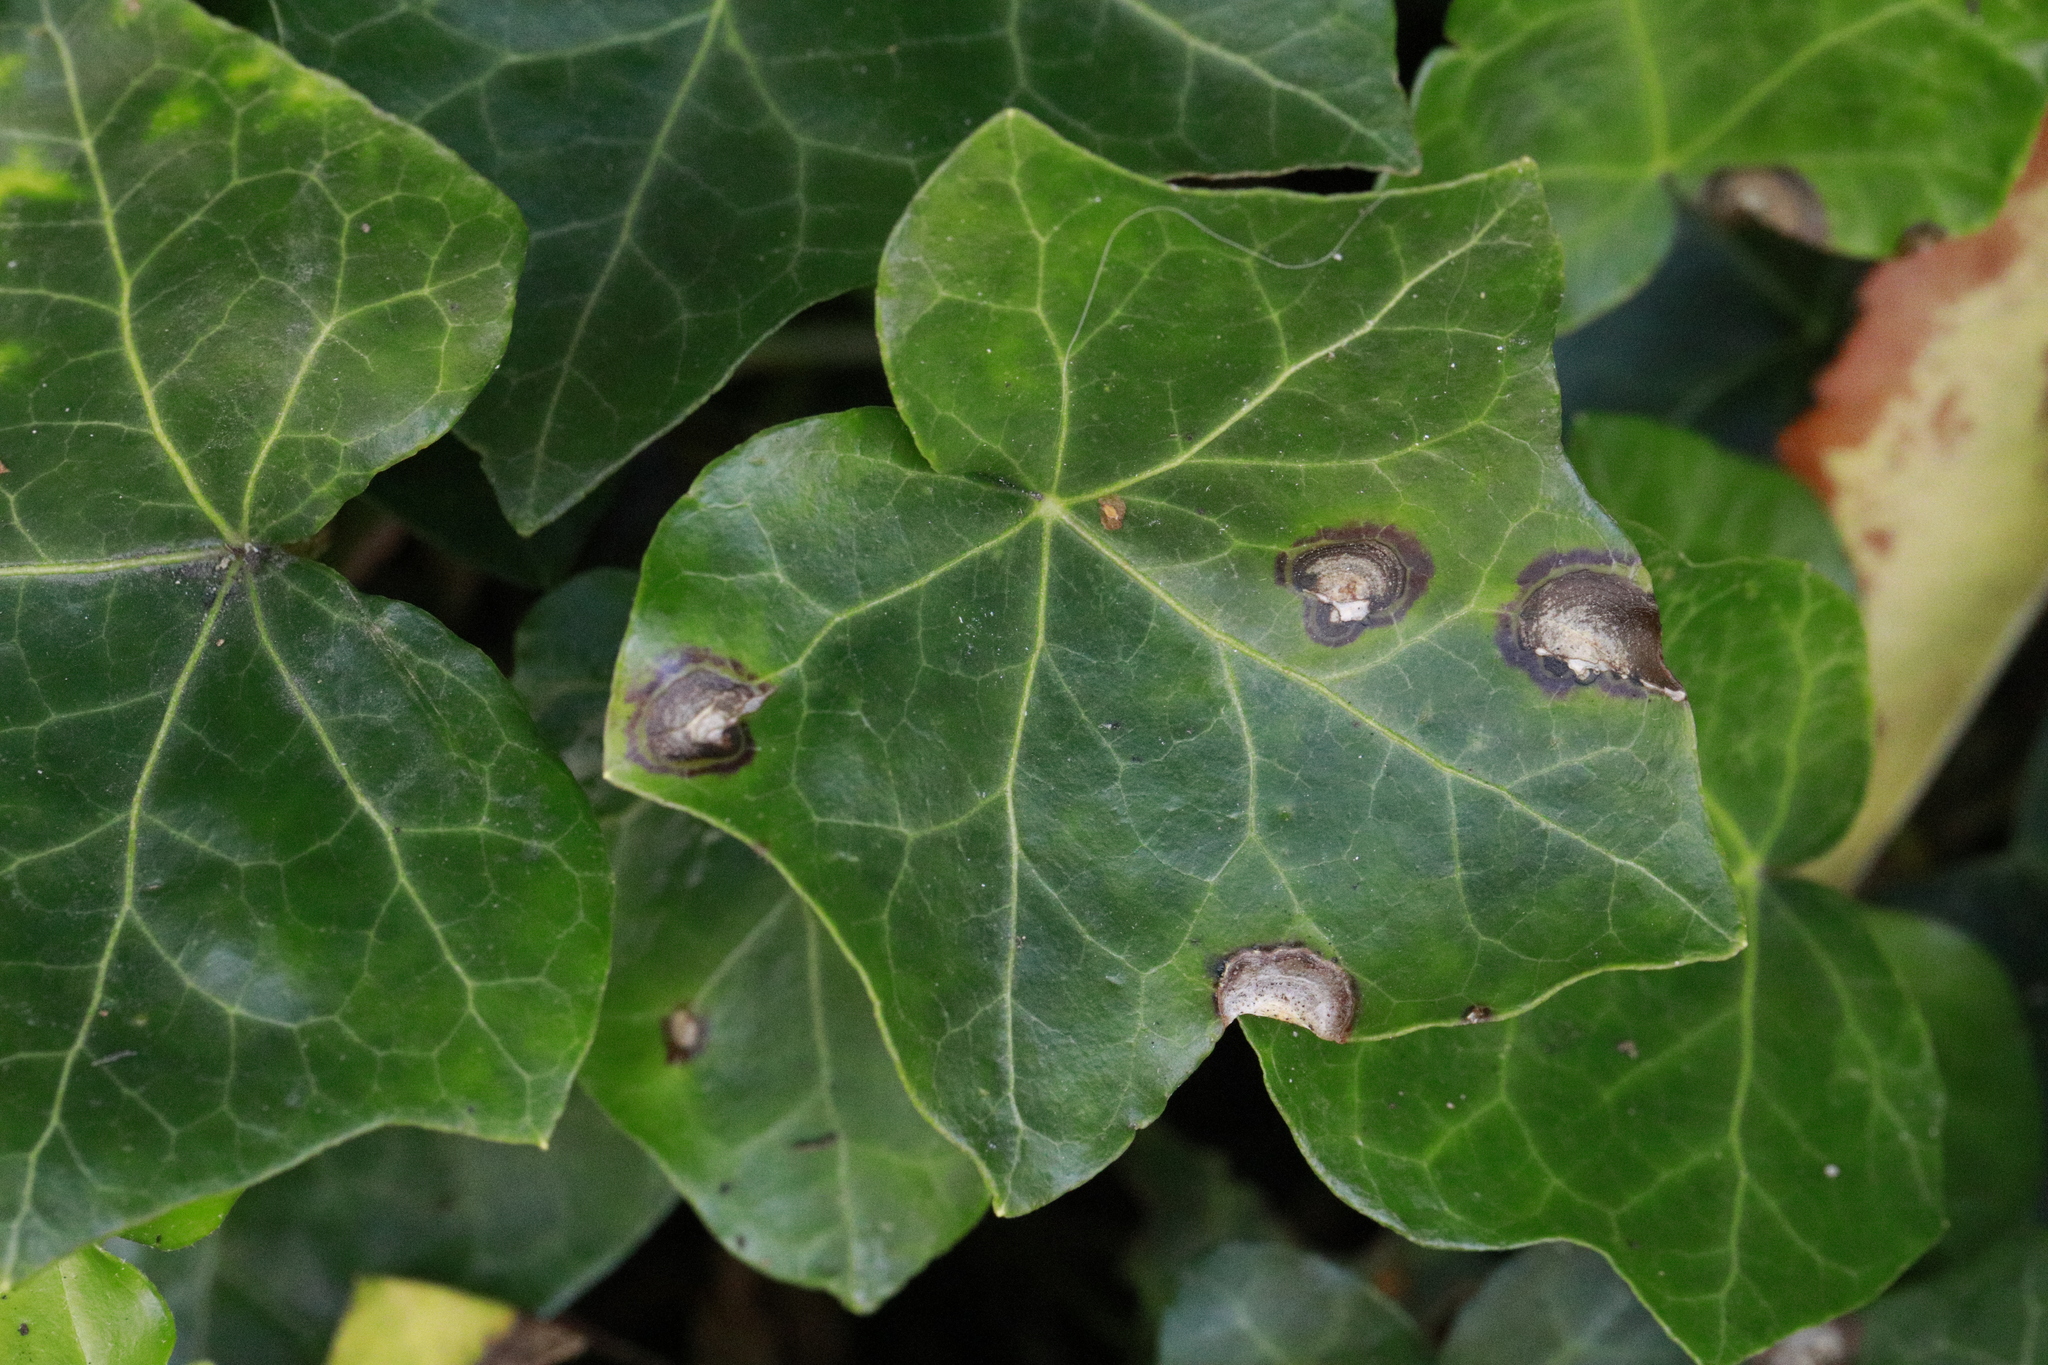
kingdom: Plantae
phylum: Tracheophyta
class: Magnoliopsida
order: Apiales
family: Araliaceae
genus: Hedera
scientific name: Hedera helix
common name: Ivy
